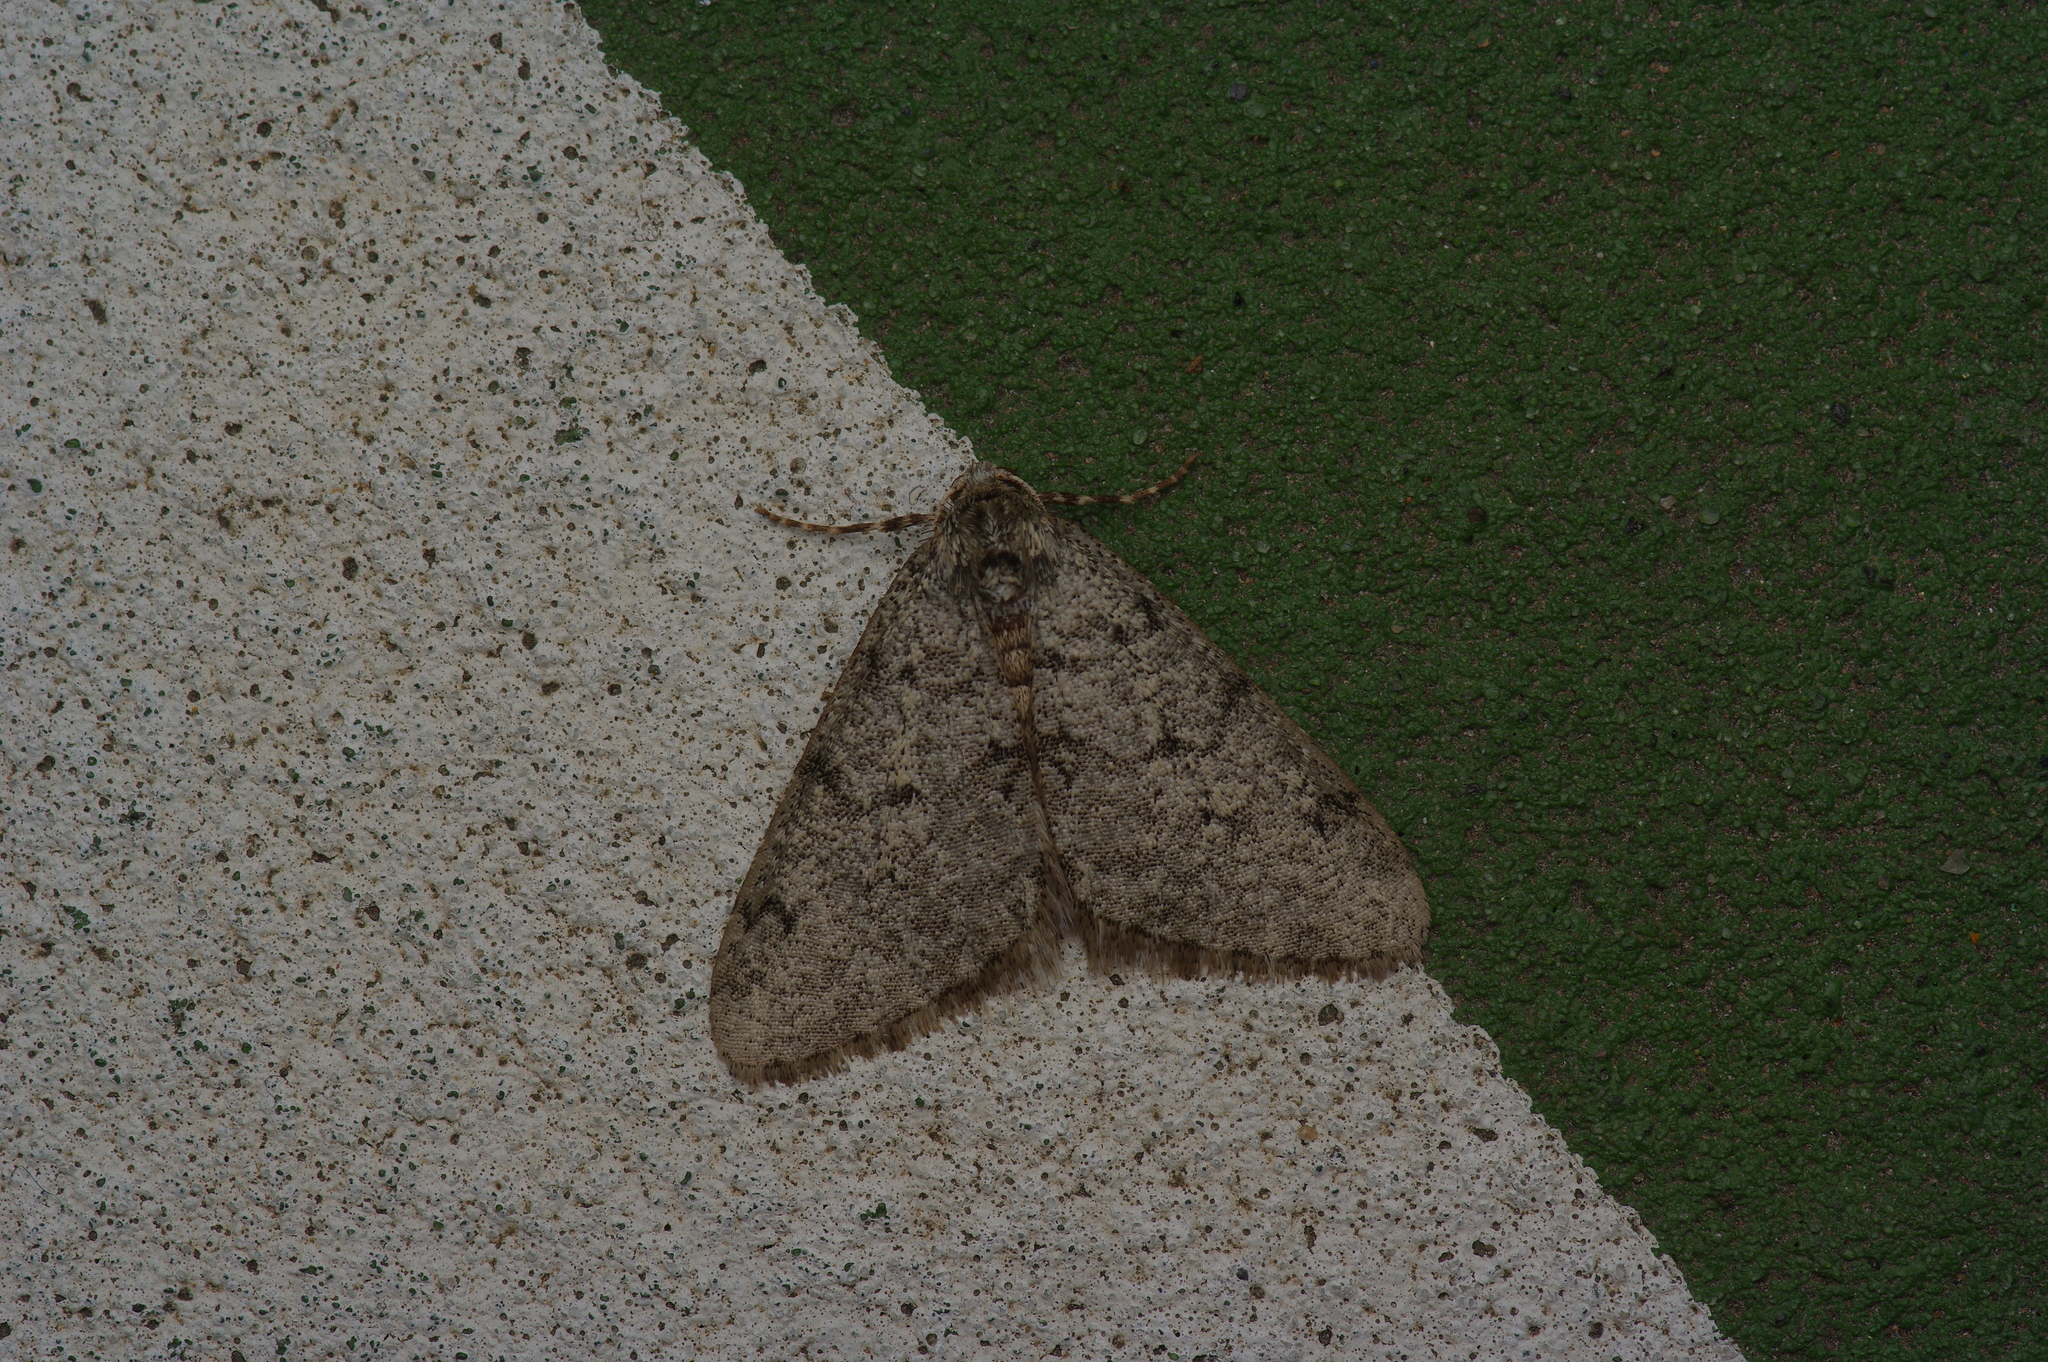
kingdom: Animalia
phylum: Arthropoda
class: Insecta
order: Lepidoptera
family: Geometridae
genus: Phigalia
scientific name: Phigalia strigataria
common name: Small phigalia
